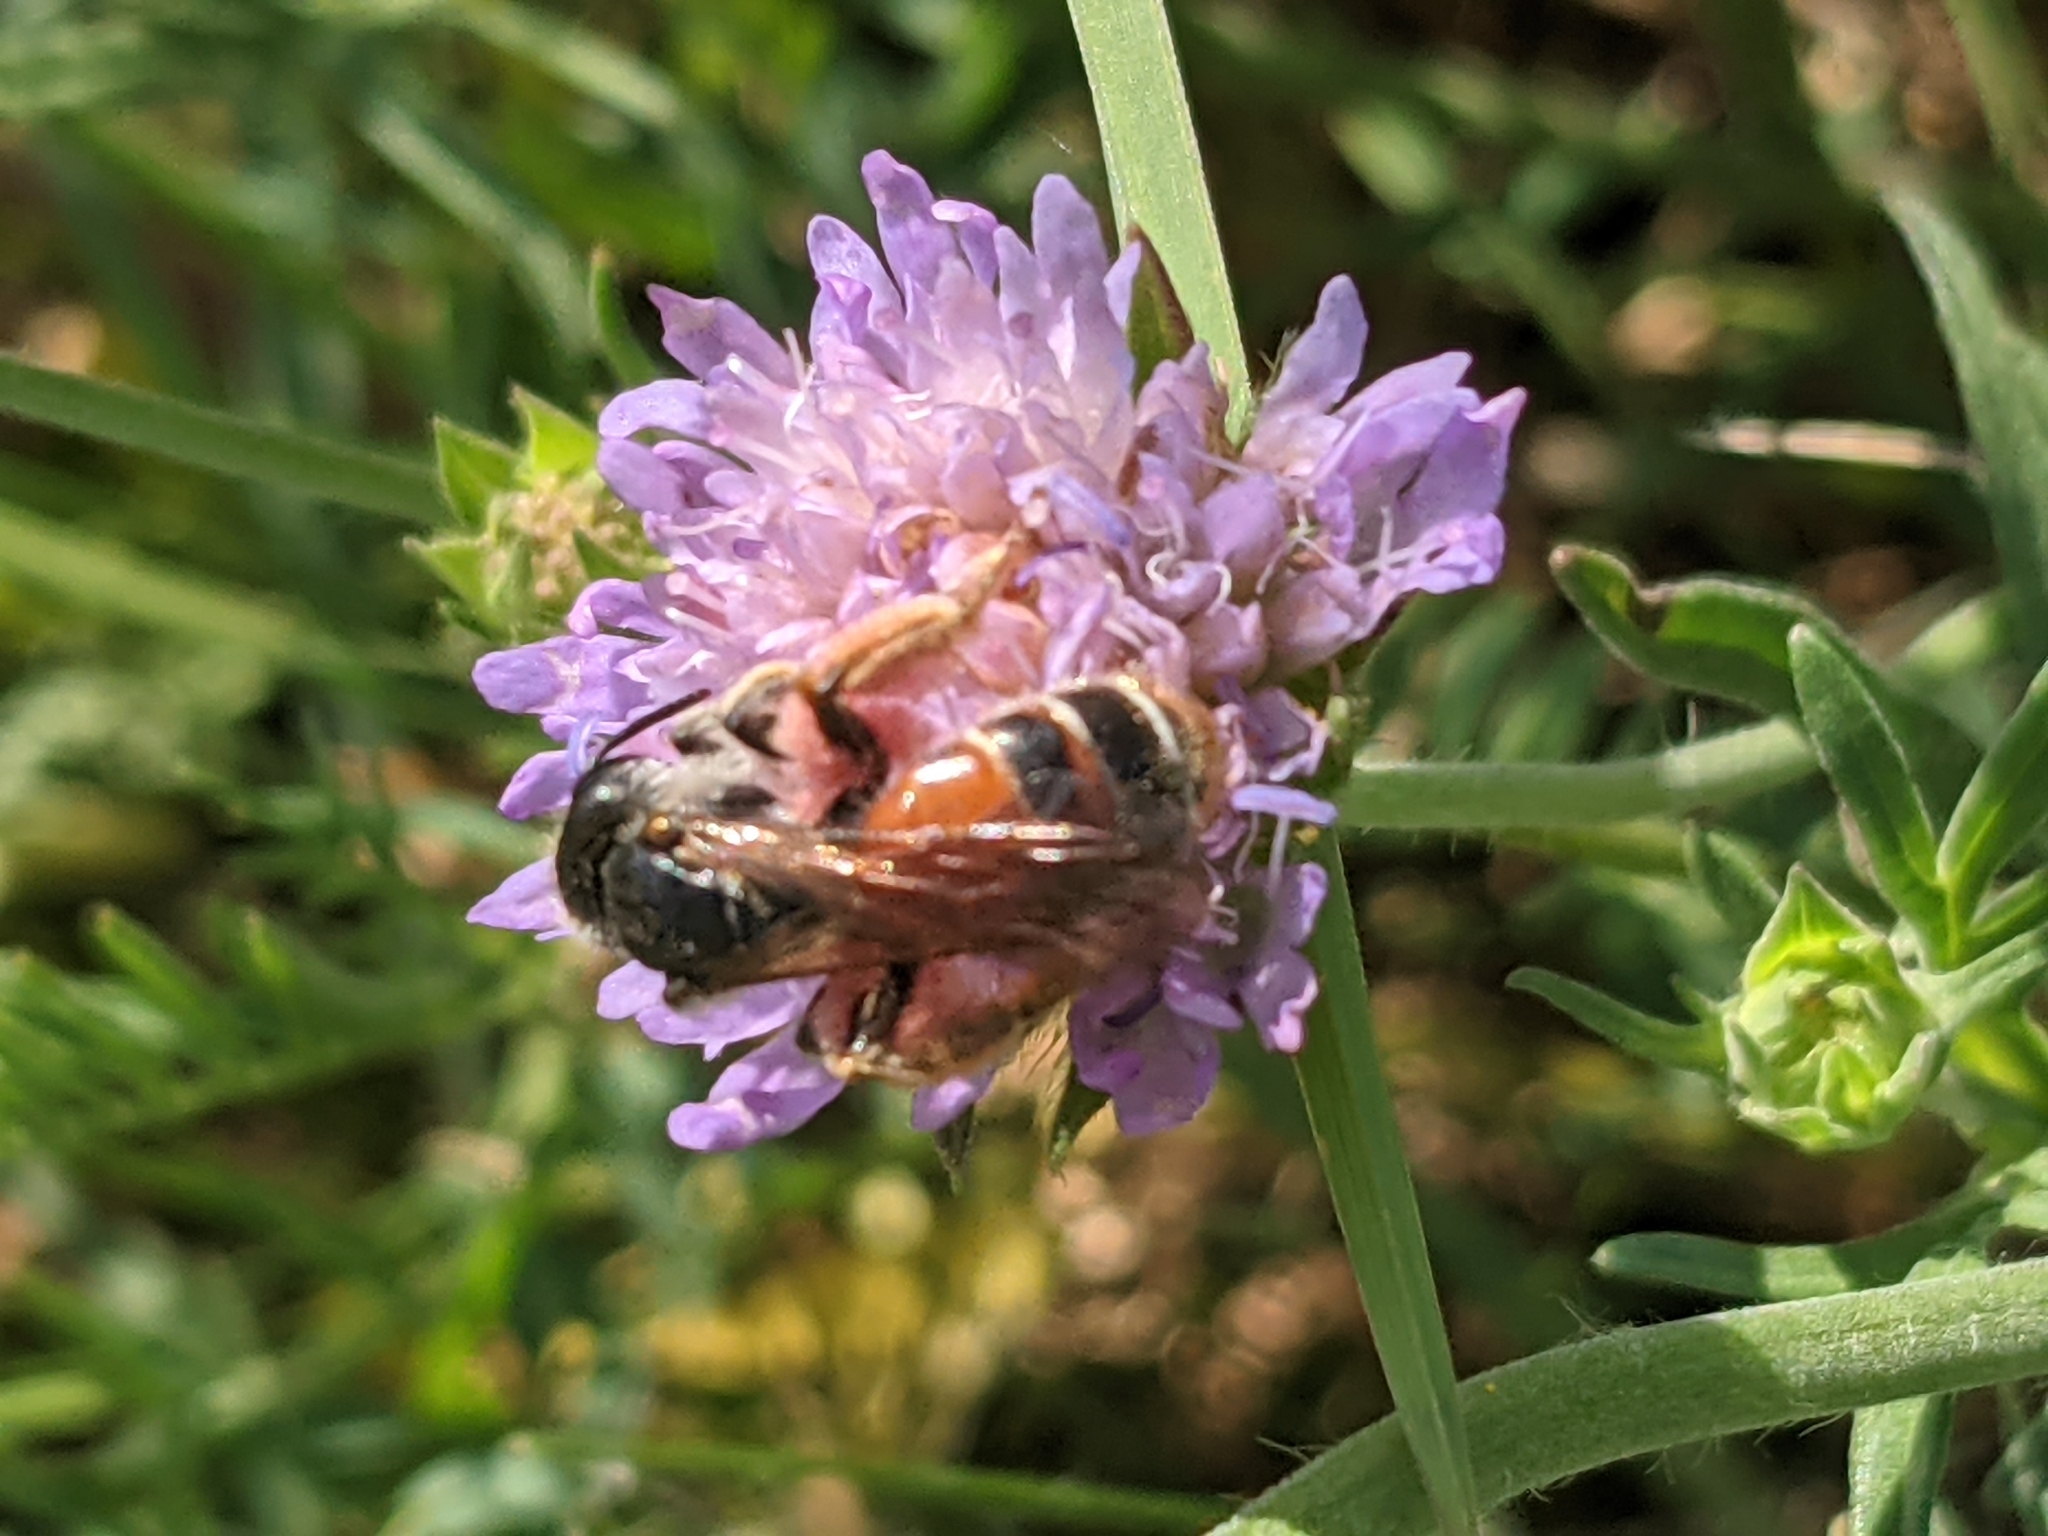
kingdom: Animalia
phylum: Arthropoda
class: Insecta
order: Hymenoptera
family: Andrenidae
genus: Andrena
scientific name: Andrena hattorfiana
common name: Large scabious mining bee
